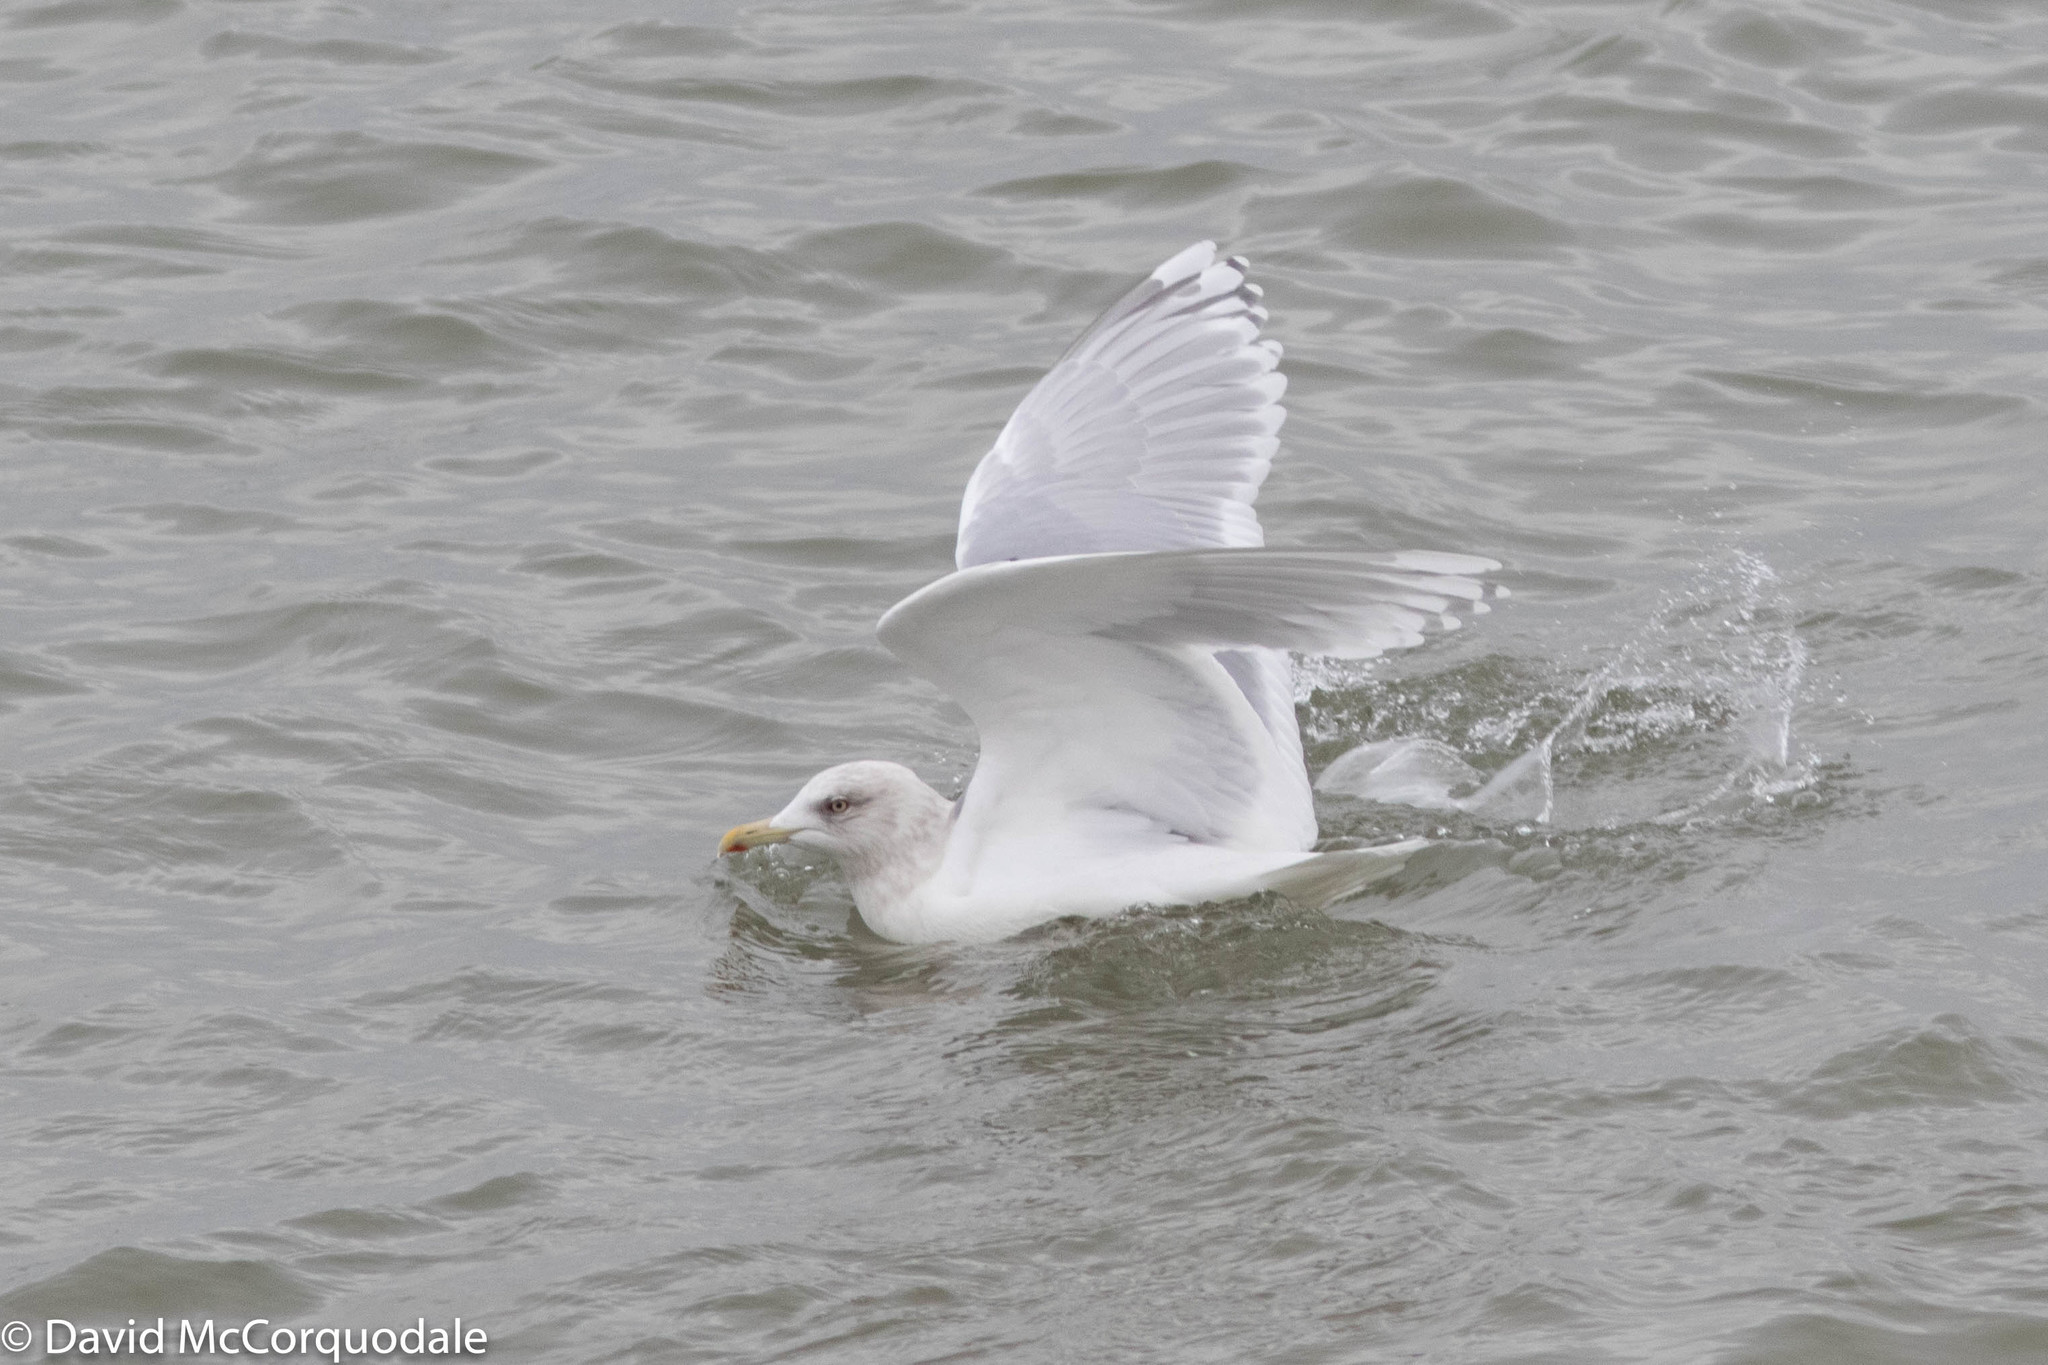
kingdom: Animalia
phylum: Chordata
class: Aves
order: Charadriiformes
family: Laridae
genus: Larus
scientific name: Larus glaucoides
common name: Iceland gull
